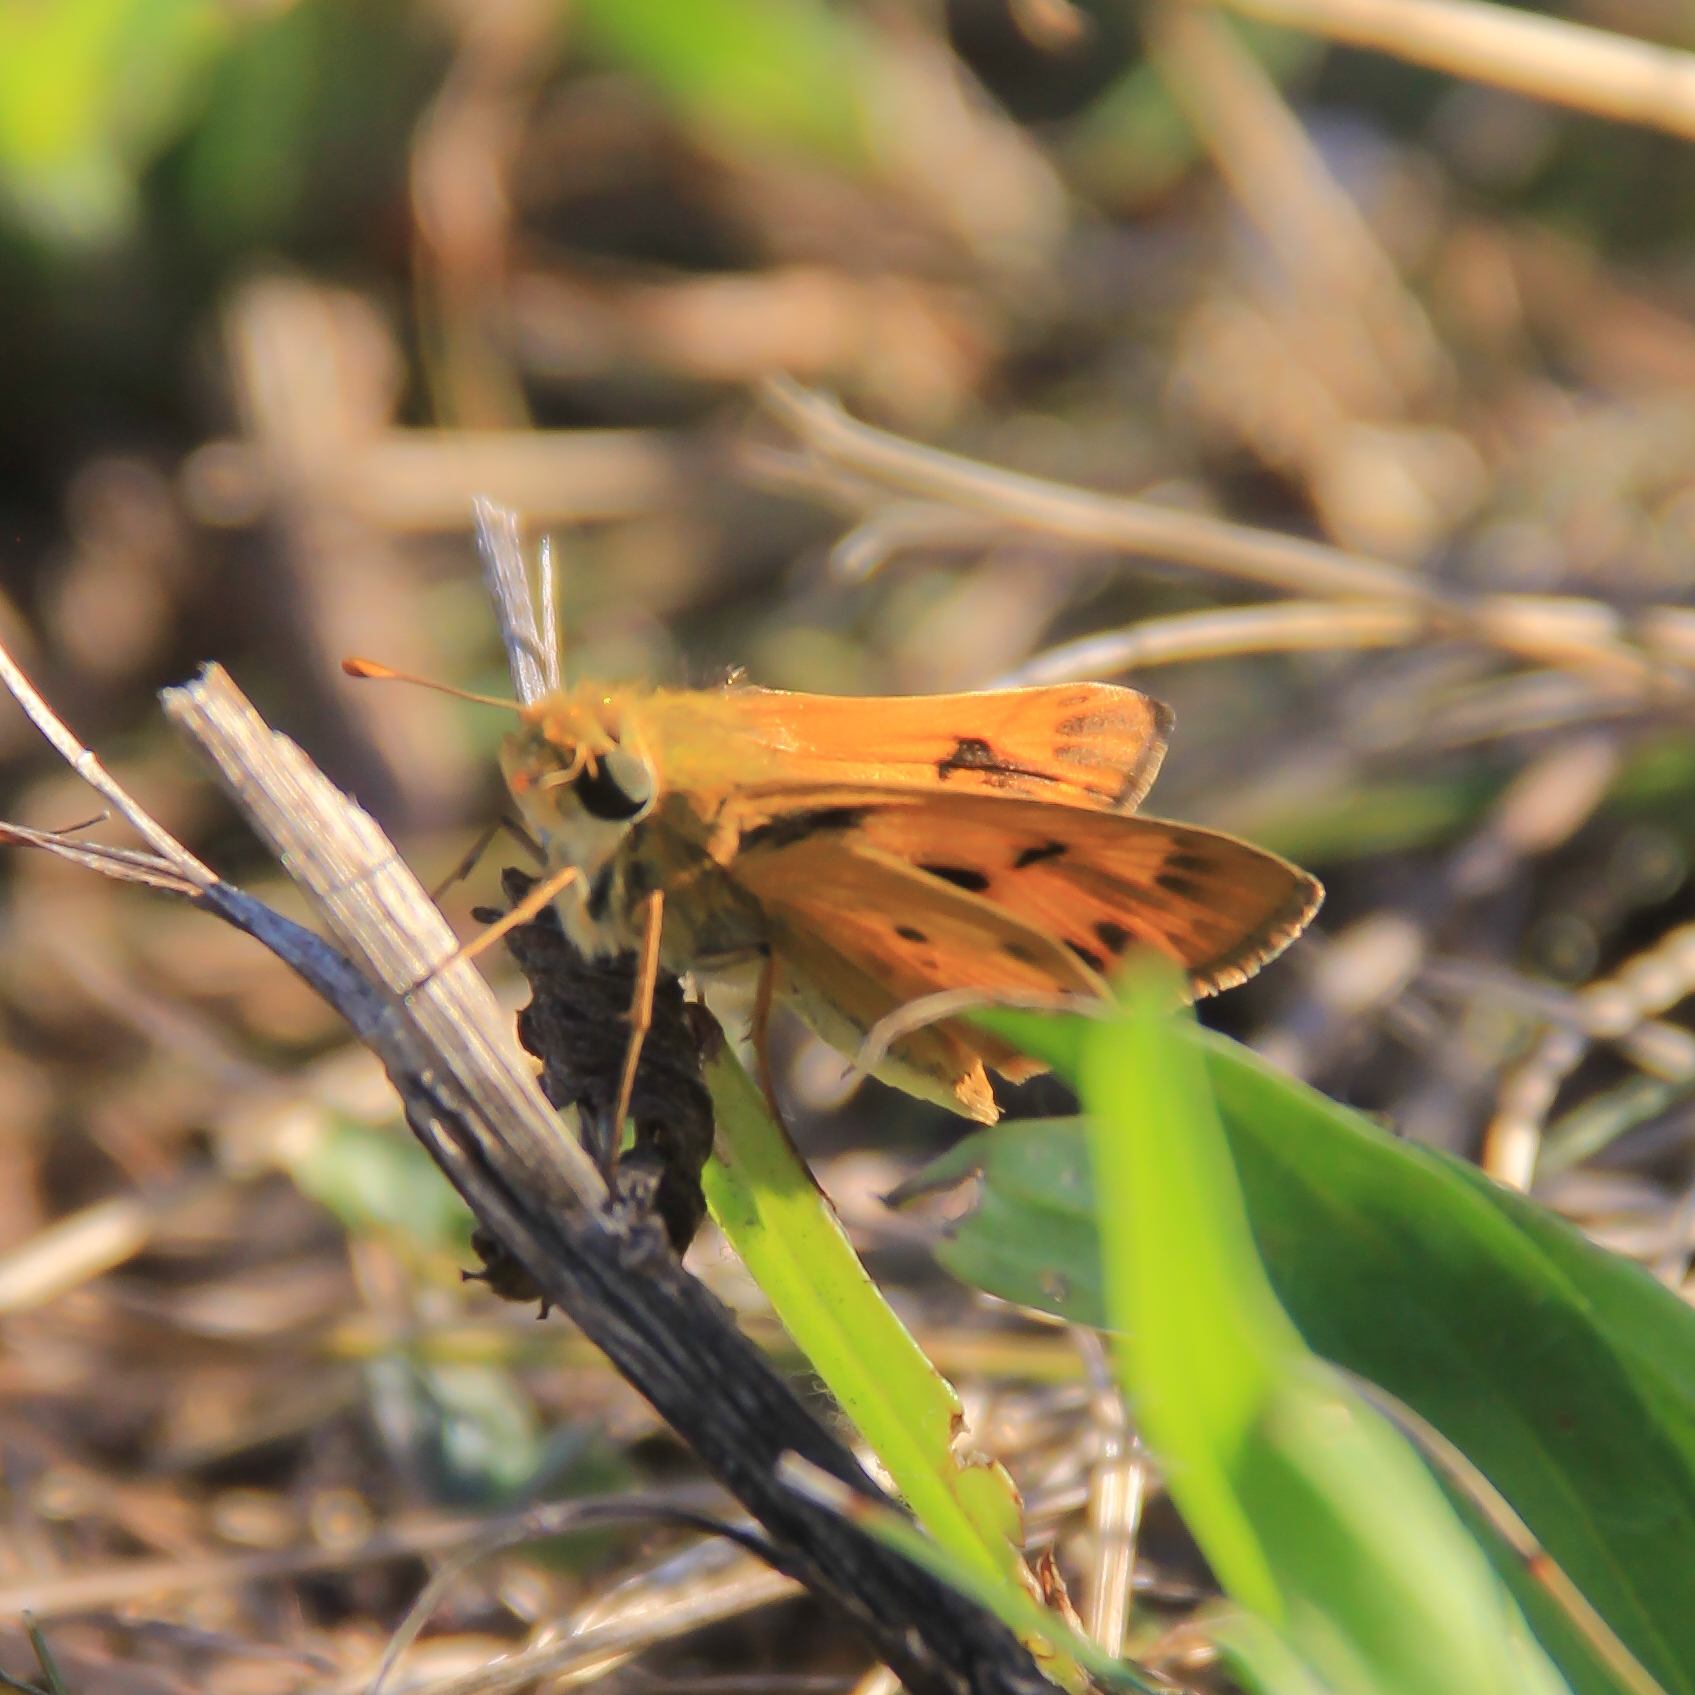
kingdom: Animalia
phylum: Arthropoda
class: Insecta
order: Lepidoptera
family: Hesperiidae
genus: Hylephila
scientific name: Hylephila phyleus
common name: Fiery skipper
